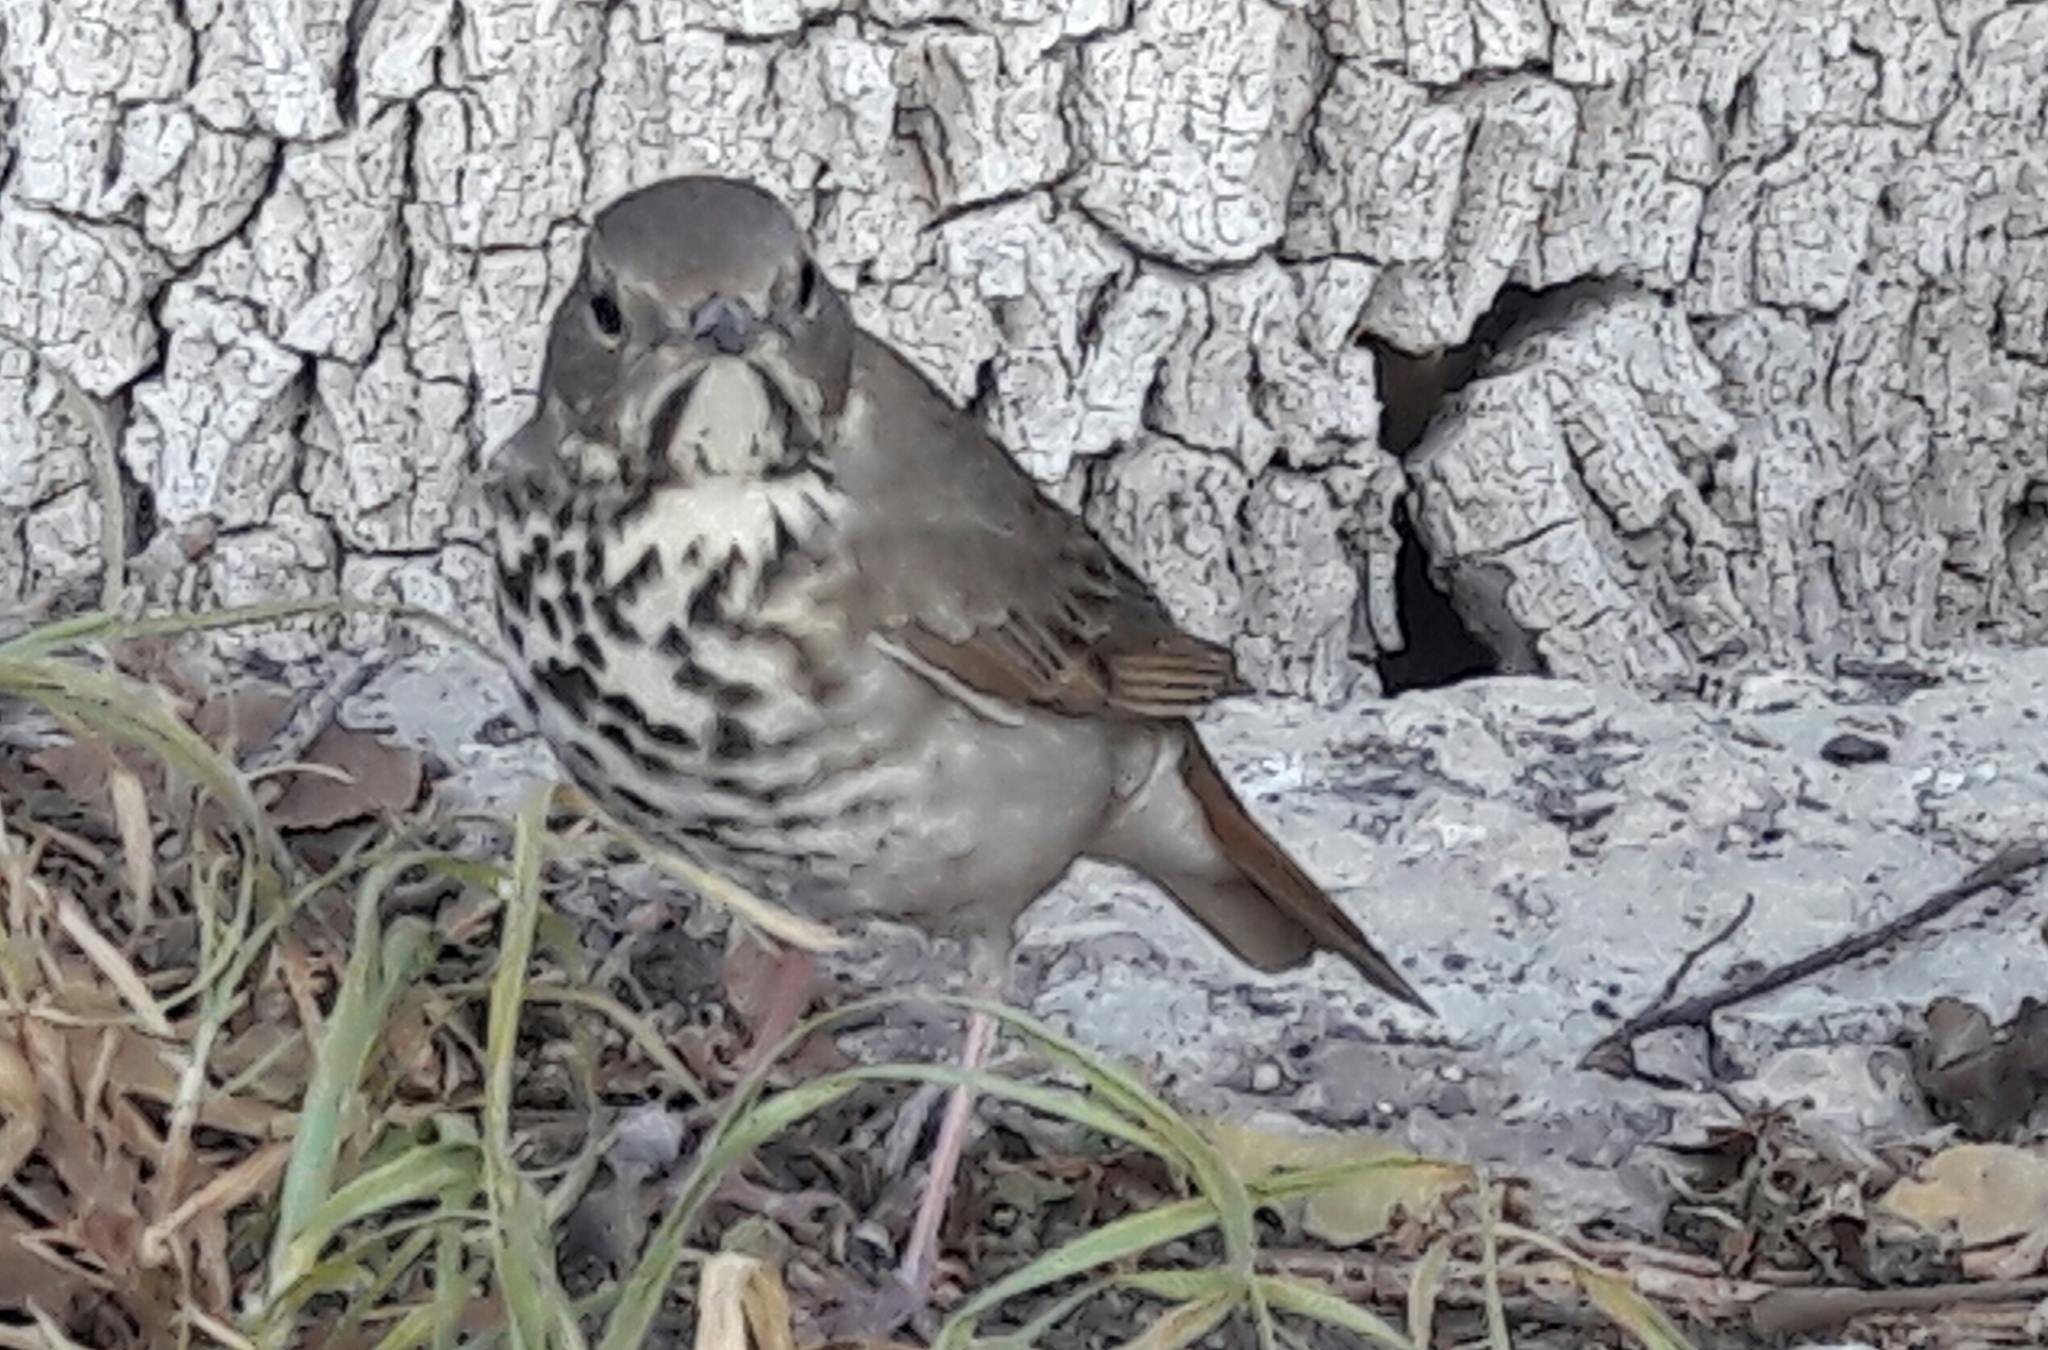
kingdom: Animalia
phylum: Chordata
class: Aves
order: Passeriformes
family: Turdidae
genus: Catharus
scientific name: Catharus guttatus
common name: Hermit thrush
